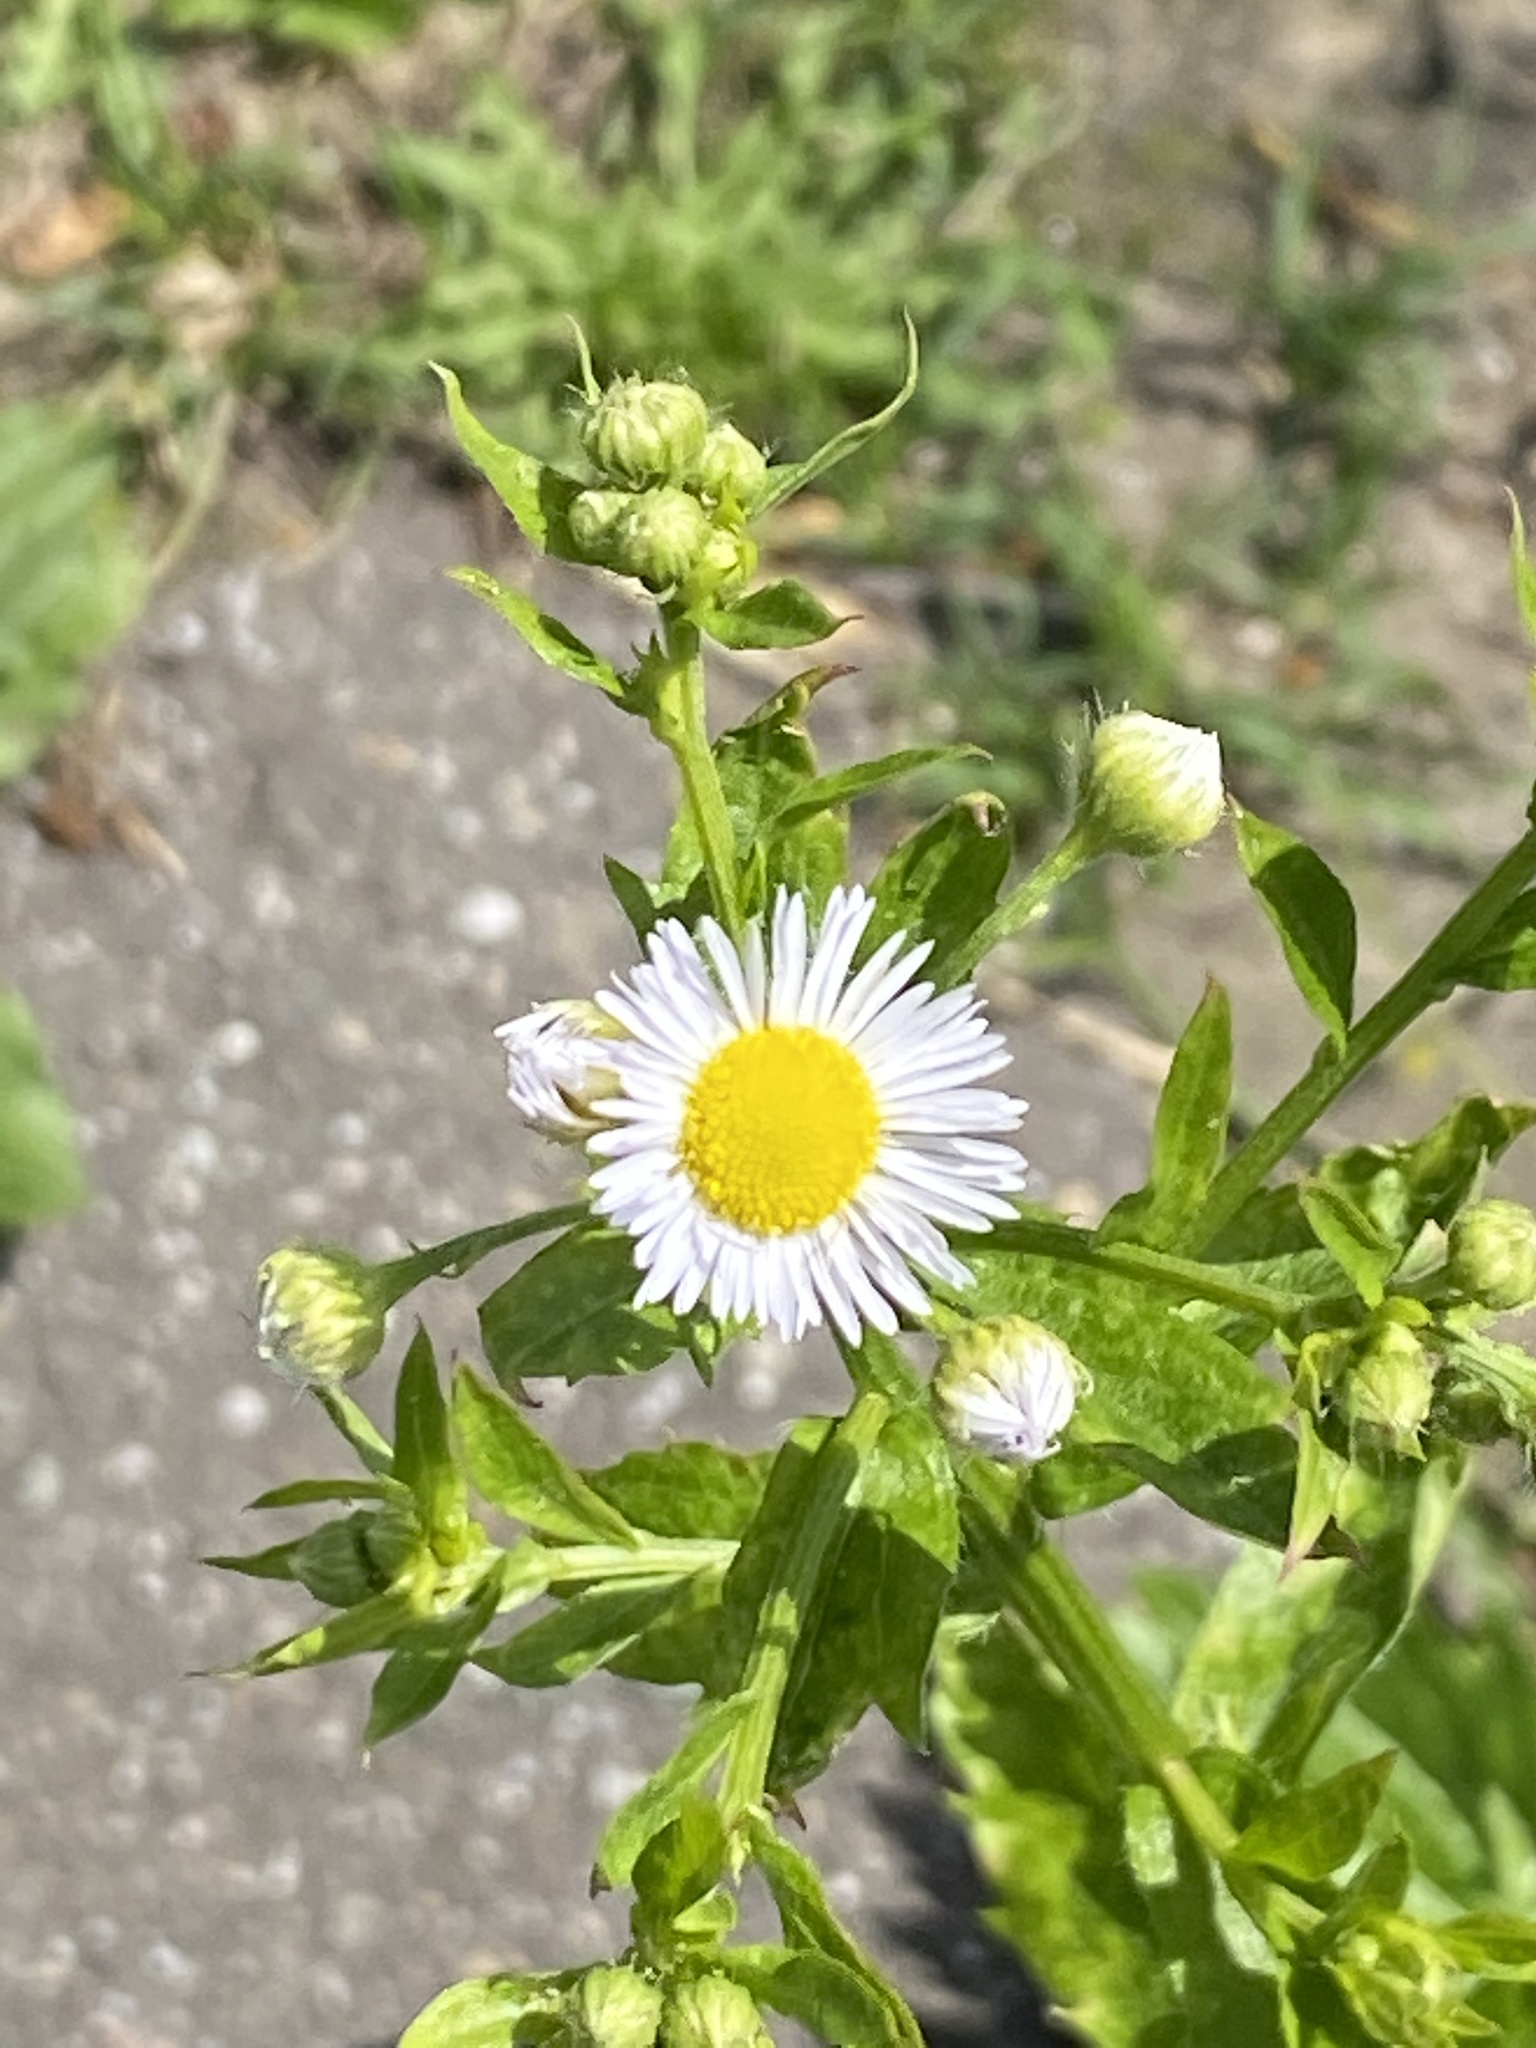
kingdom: Plantae
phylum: Tracheophyta
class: Magnoliopsida
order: Asterales
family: Asteraceae
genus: Erigeron
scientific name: Erigeron annuus
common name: Tall fleabane
